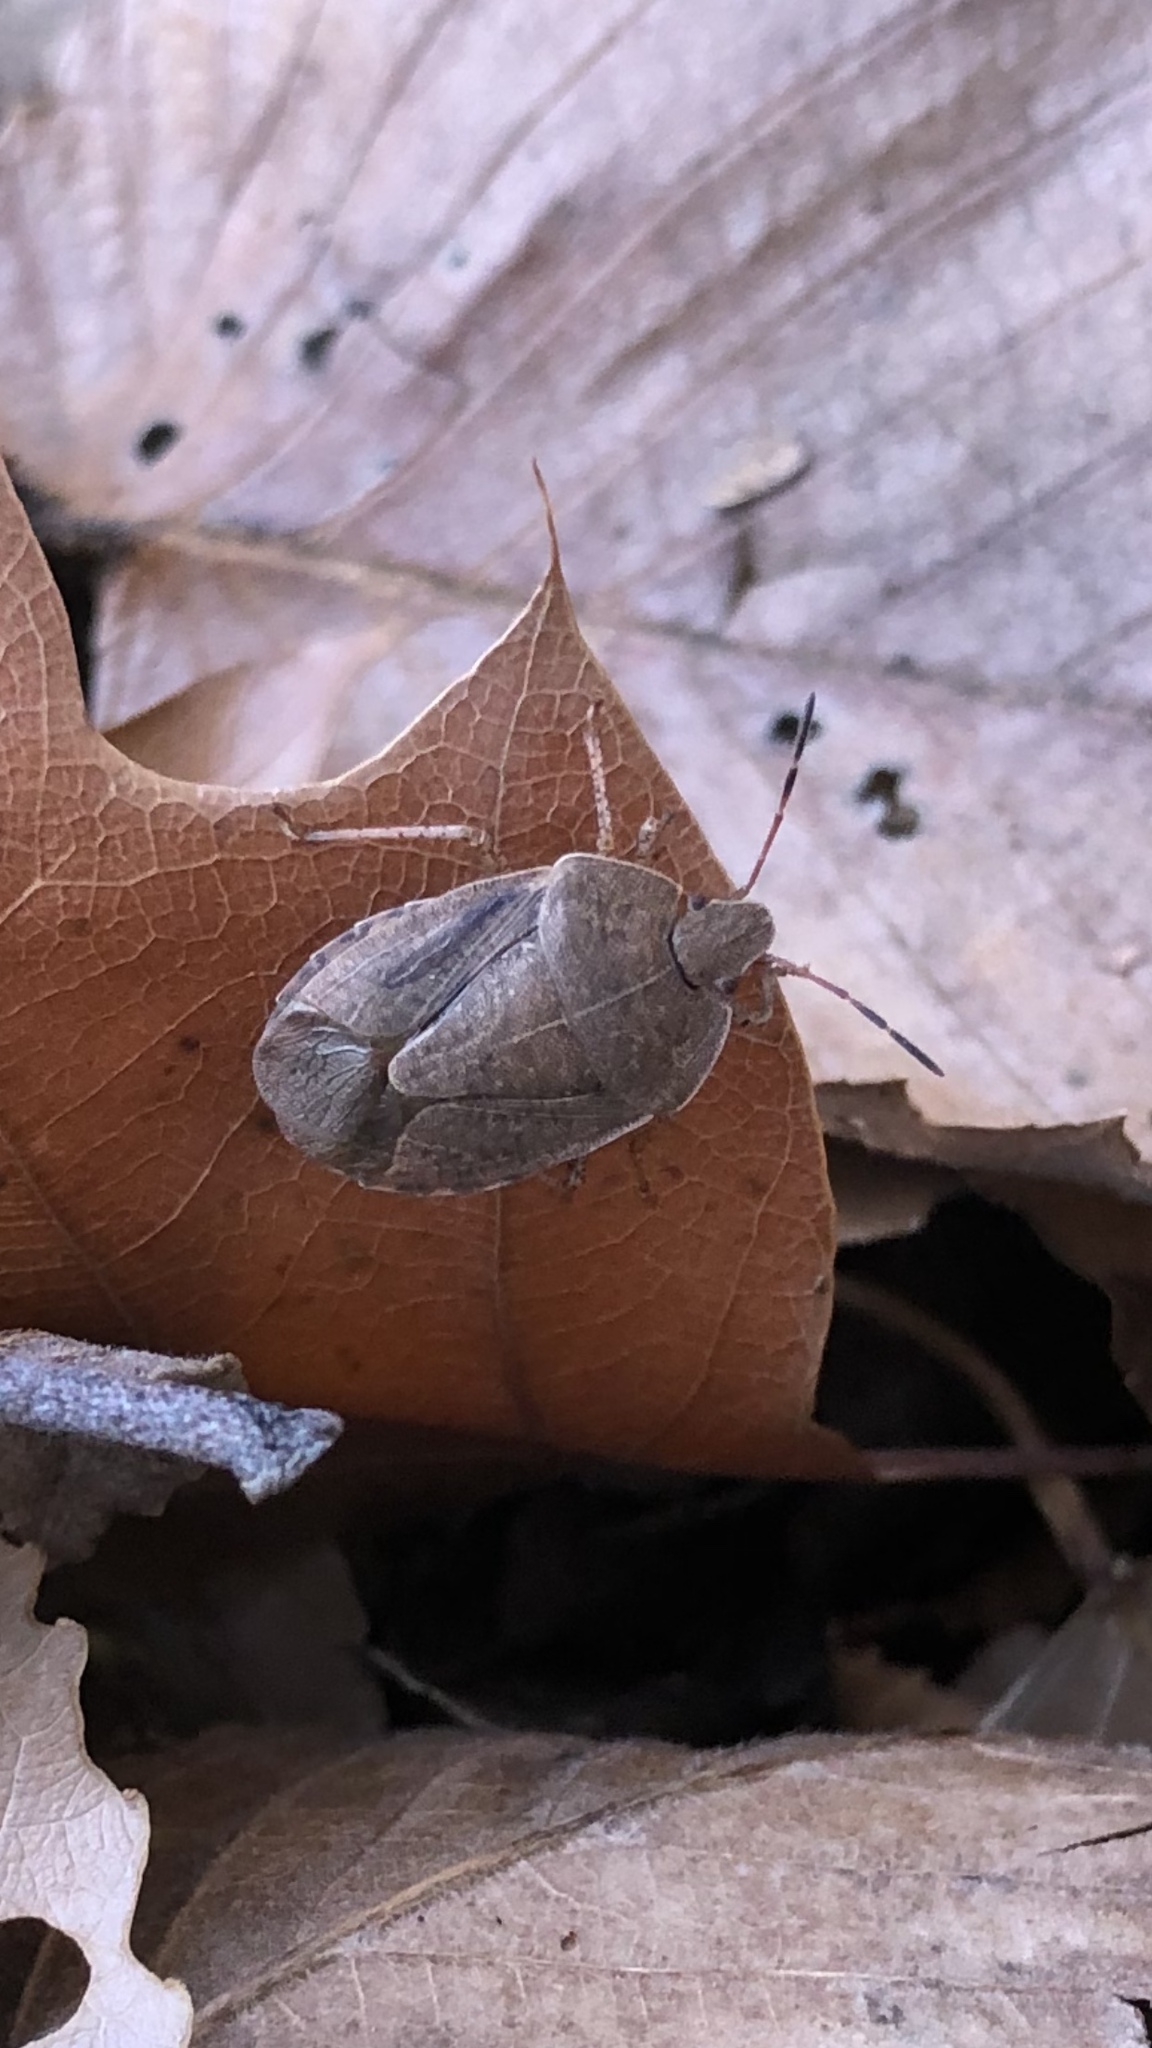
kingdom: Animalia
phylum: Arthropoda
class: Insecta
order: Hemiptera
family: Pentatomidae
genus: Menecles
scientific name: Menecles insertus
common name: Elf shoe stink bug
